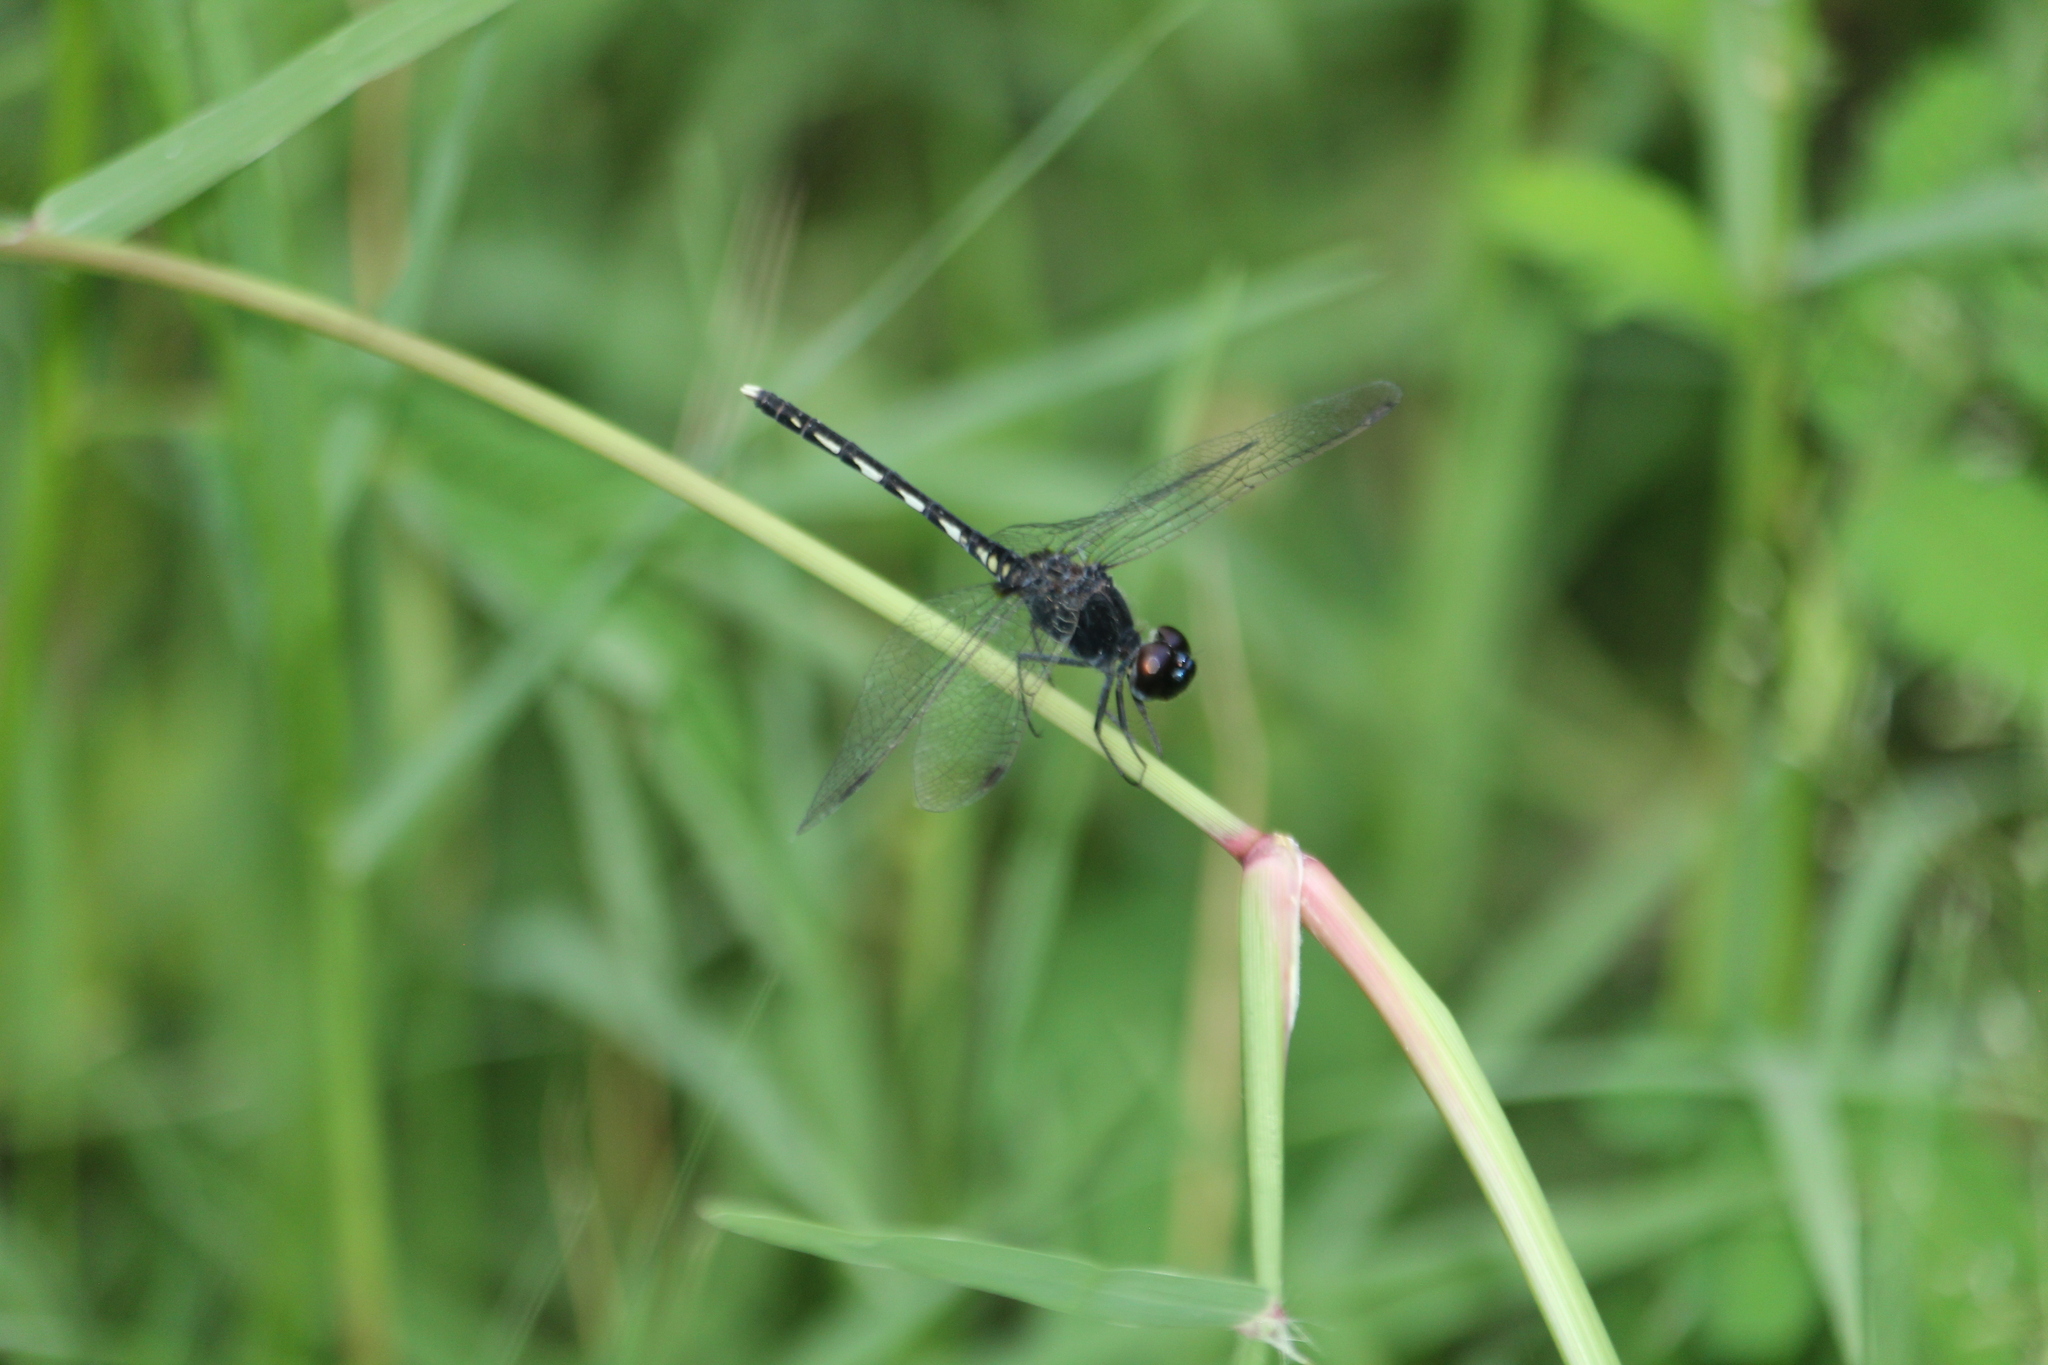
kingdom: Animalia
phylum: Arthropoda
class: Insecta
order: Odonata
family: Libellulidae
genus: Diplacodes
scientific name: Diplacodes lefebvrii
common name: Black percher
